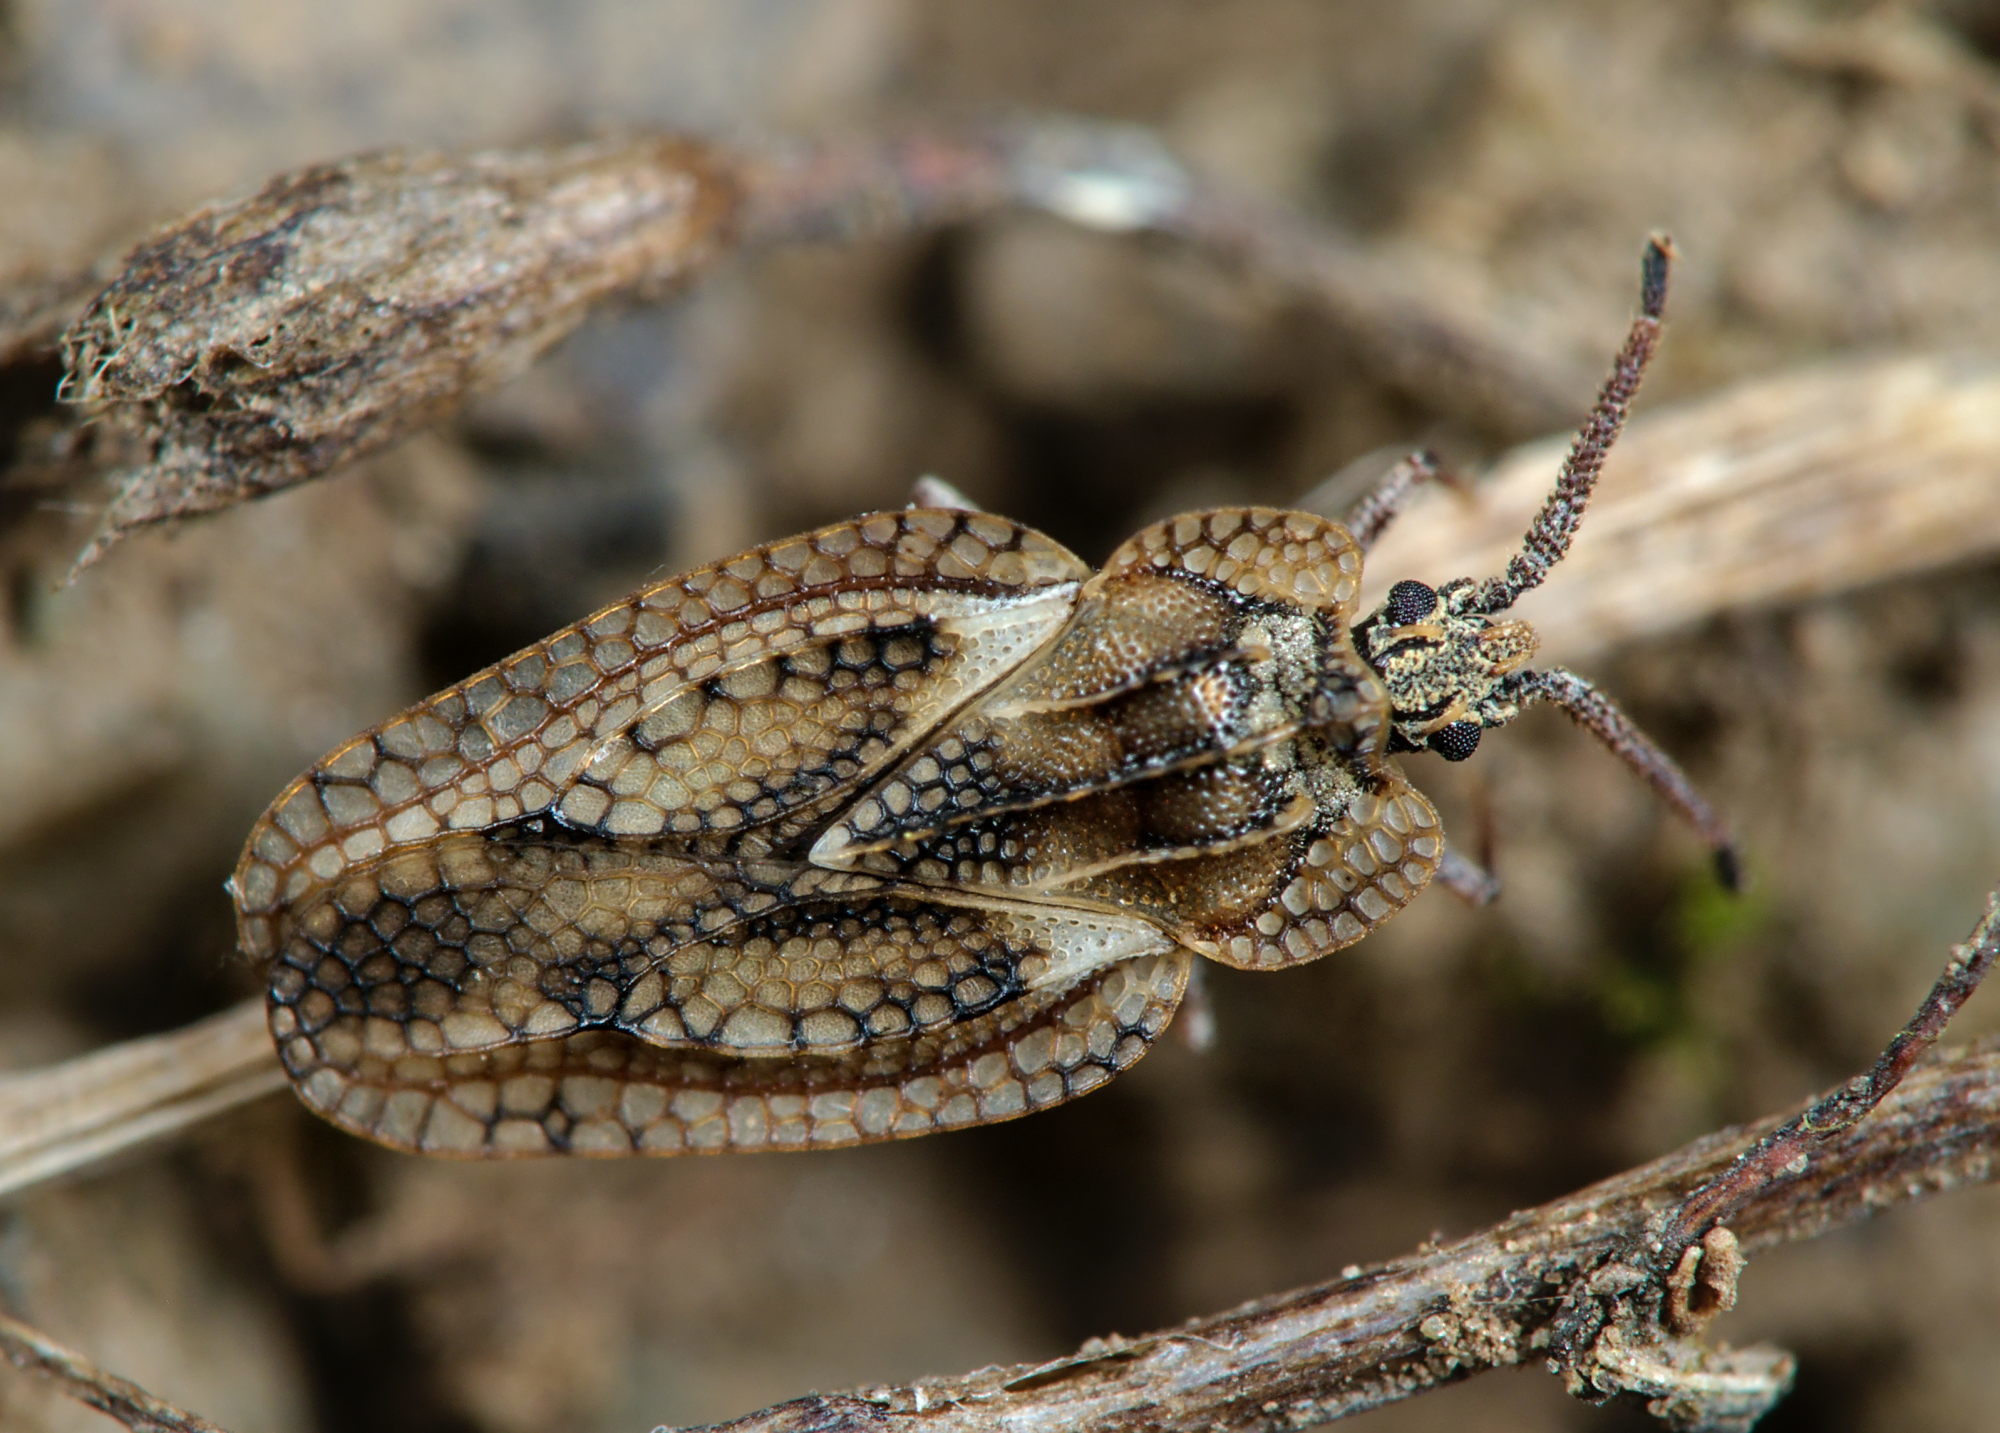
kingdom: Animalia
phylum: Arthropoda
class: Insecta
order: Hemiptera
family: Tingidae
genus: Dictyonota
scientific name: Dictyonota fuliginosa
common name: Lace bug
